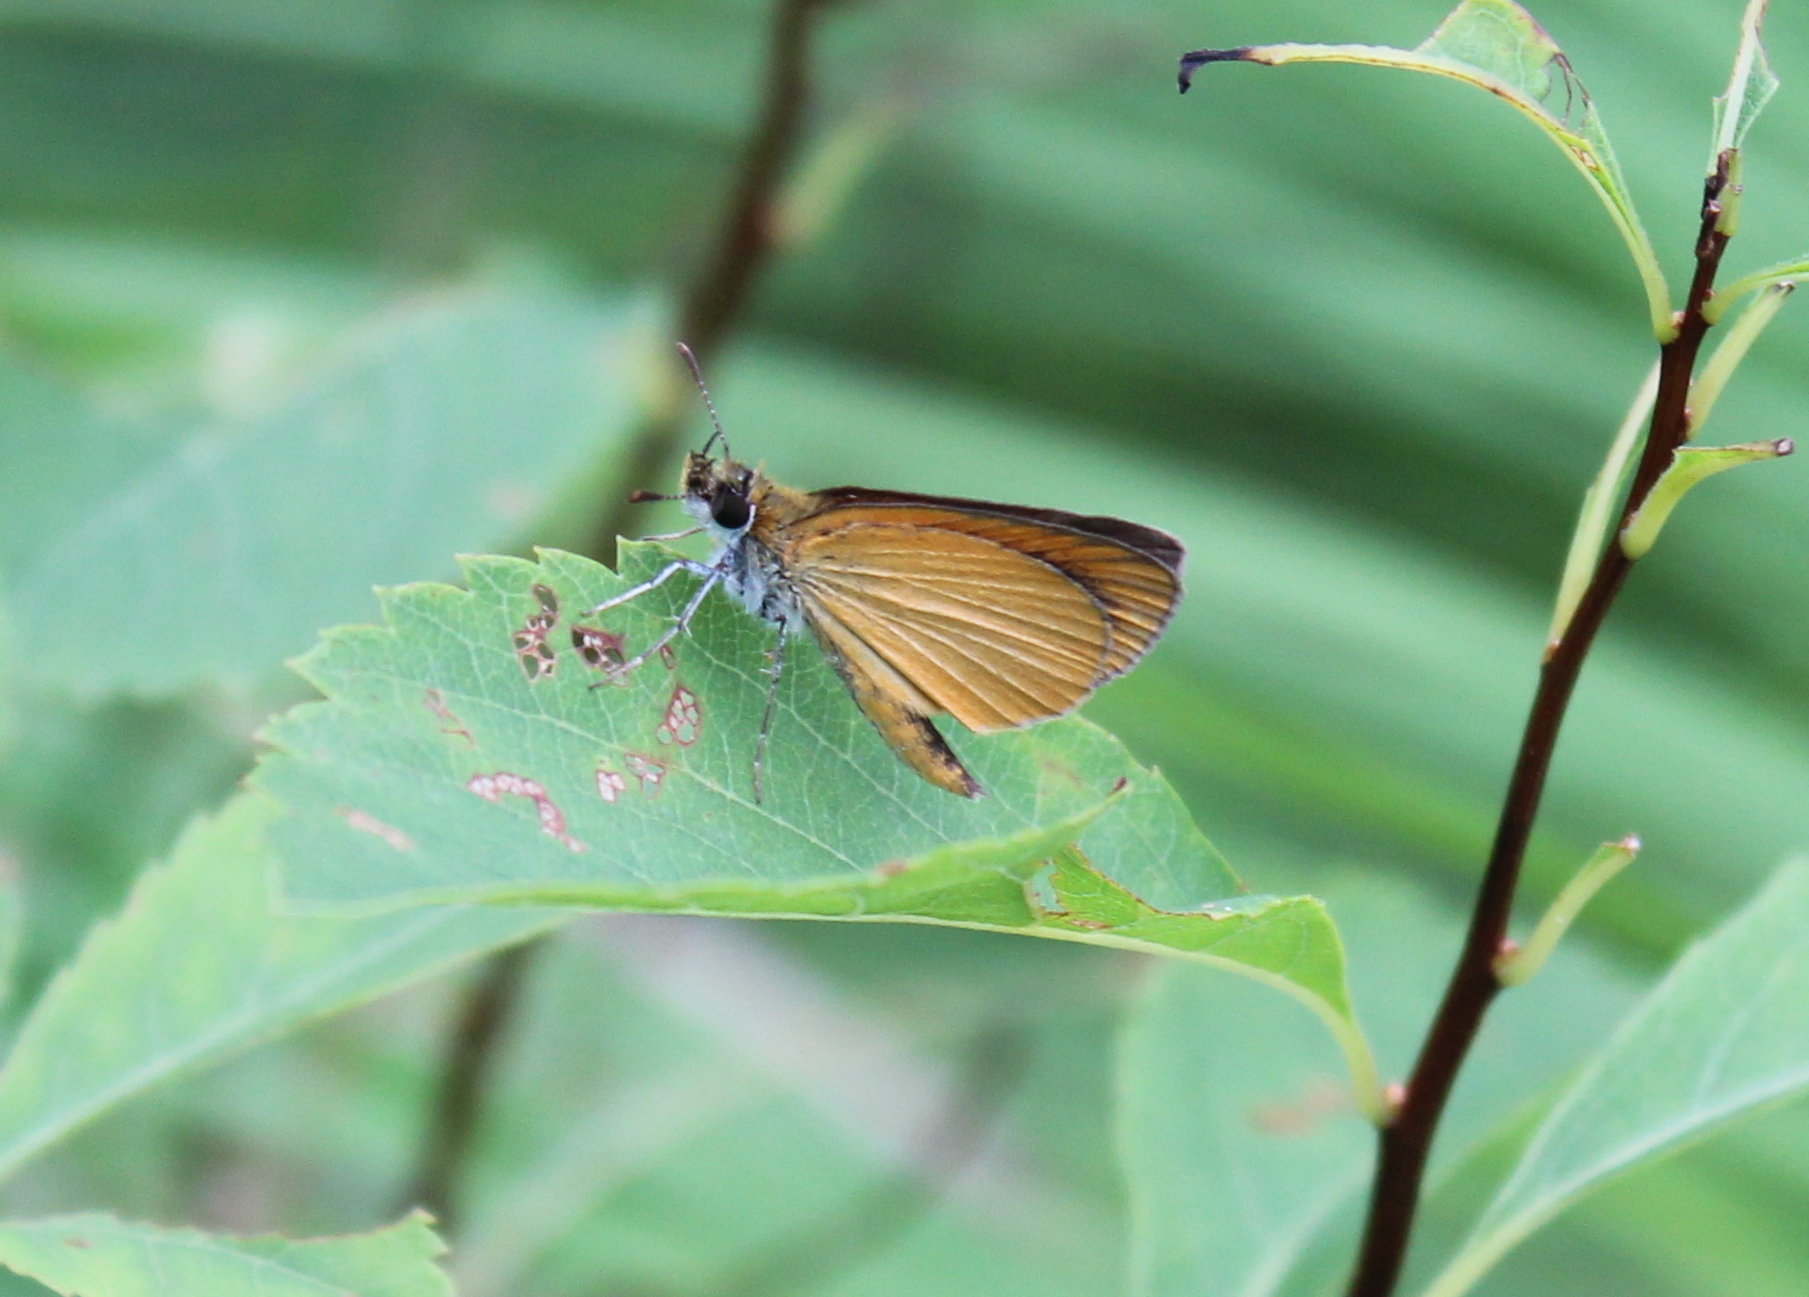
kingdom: Animalia
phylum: Arthropoda
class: Insecta
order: Lepidoptera
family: Hesperiidae
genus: Ancyloxypha
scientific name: Ancyloxypha numitor
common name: Least skipper
